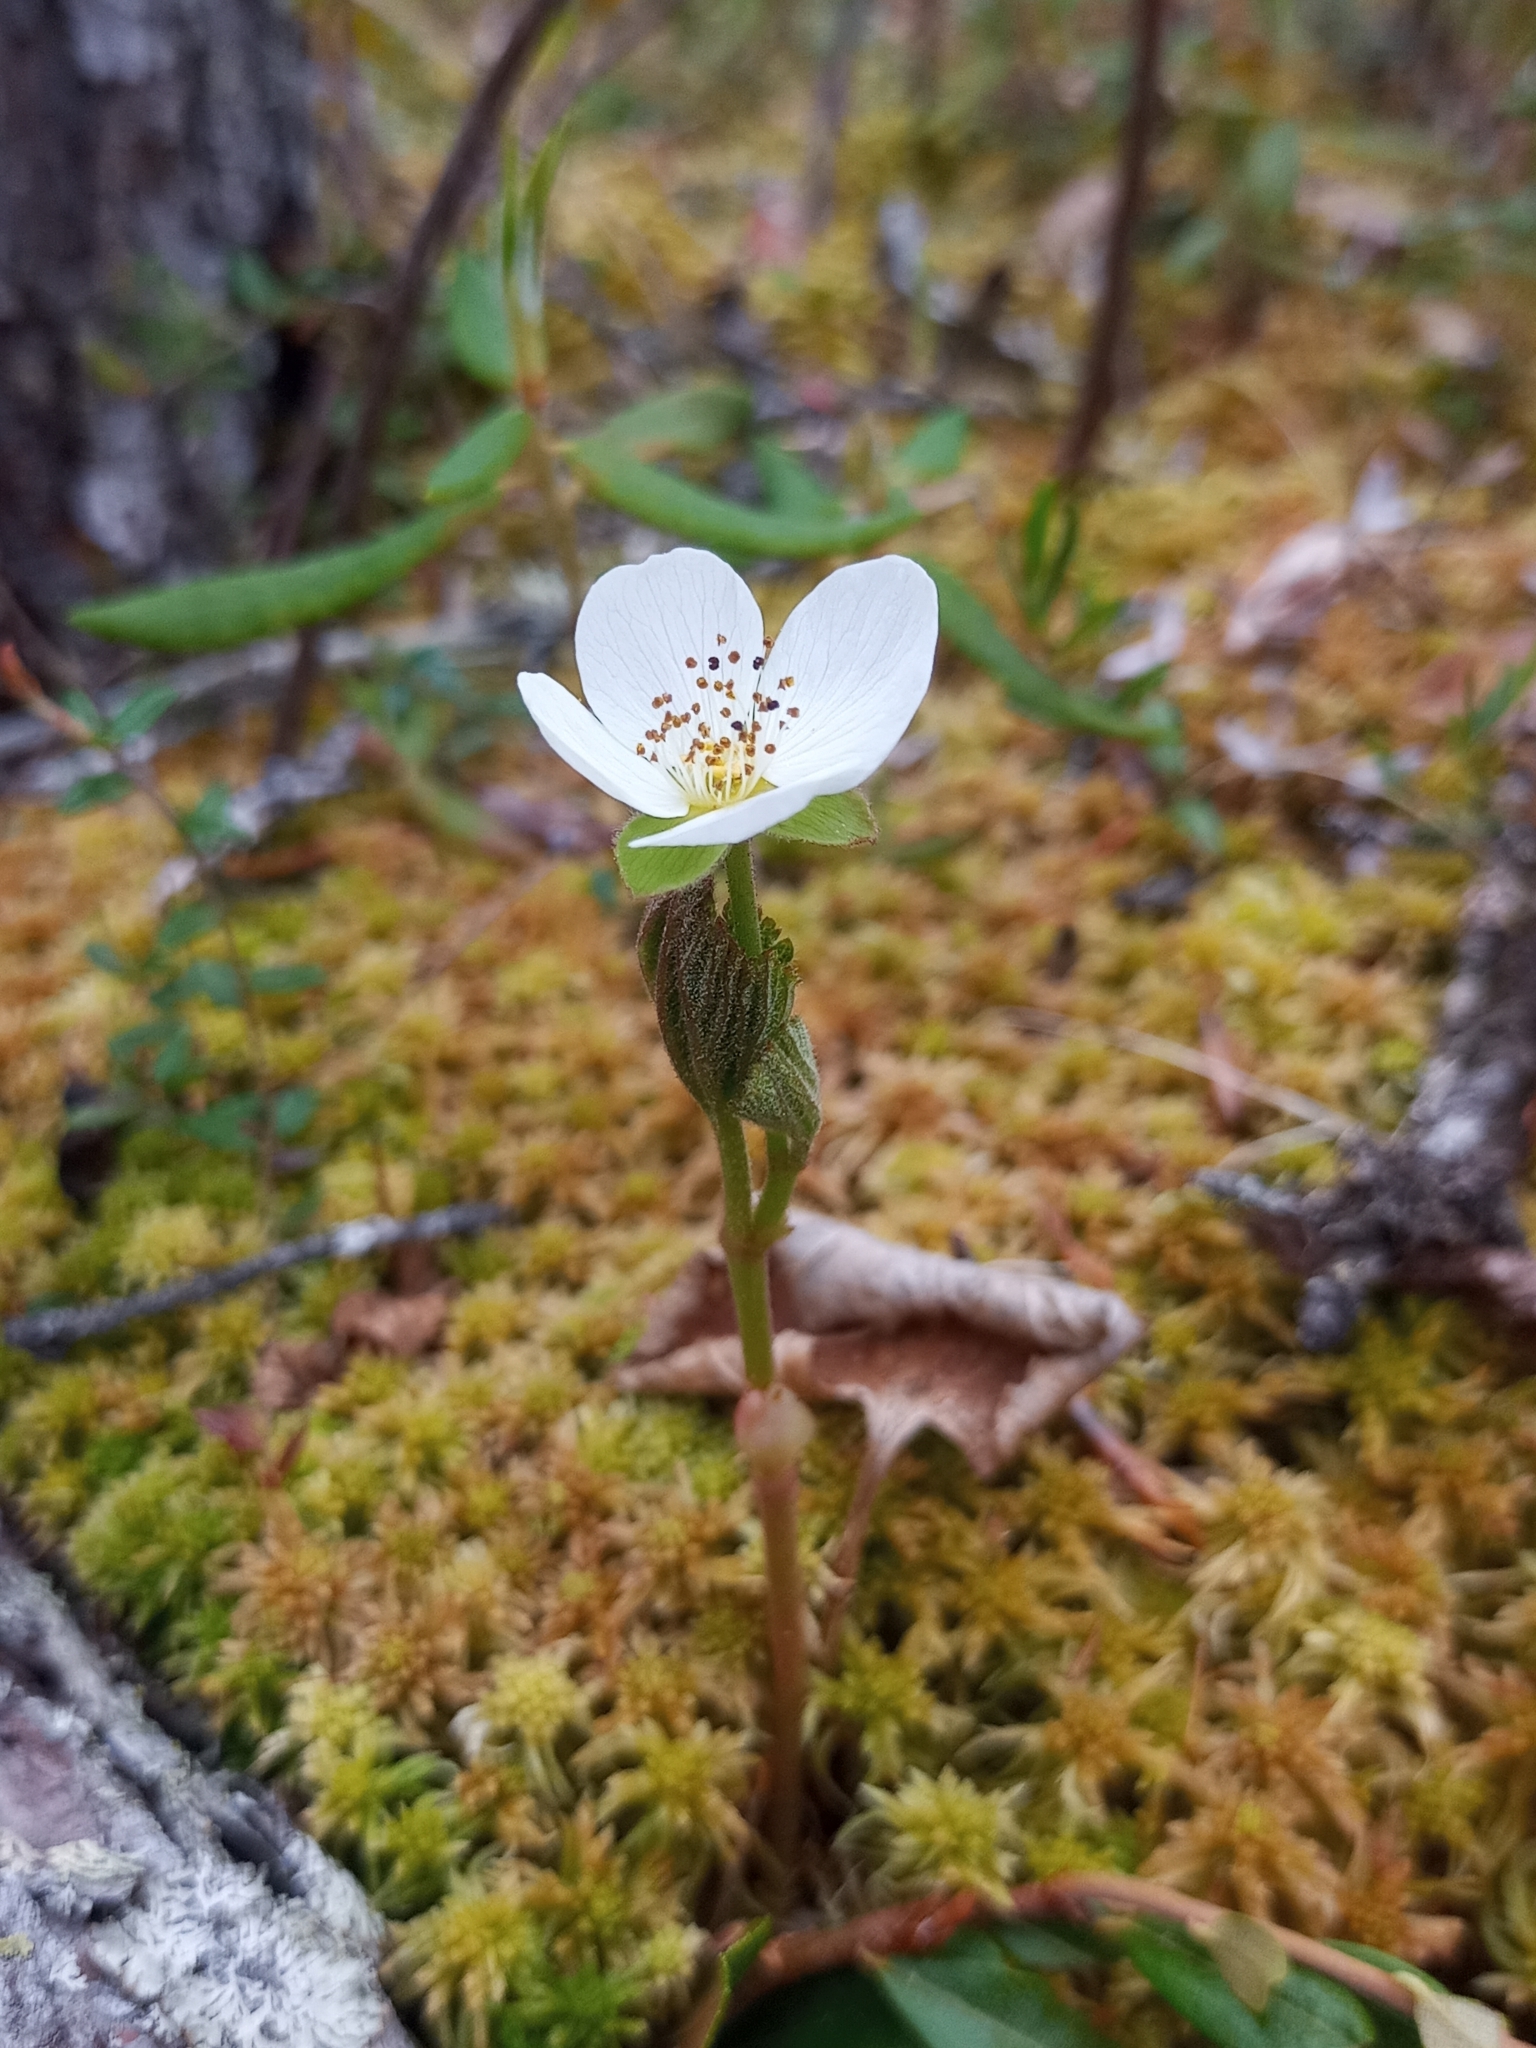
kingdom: Plantae
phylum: Tracheophyta
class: Magnoliopsida
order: Rosales
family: Rosaceae
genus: Rubus
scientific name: Rubus chamaemorus
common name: Cloudberry
